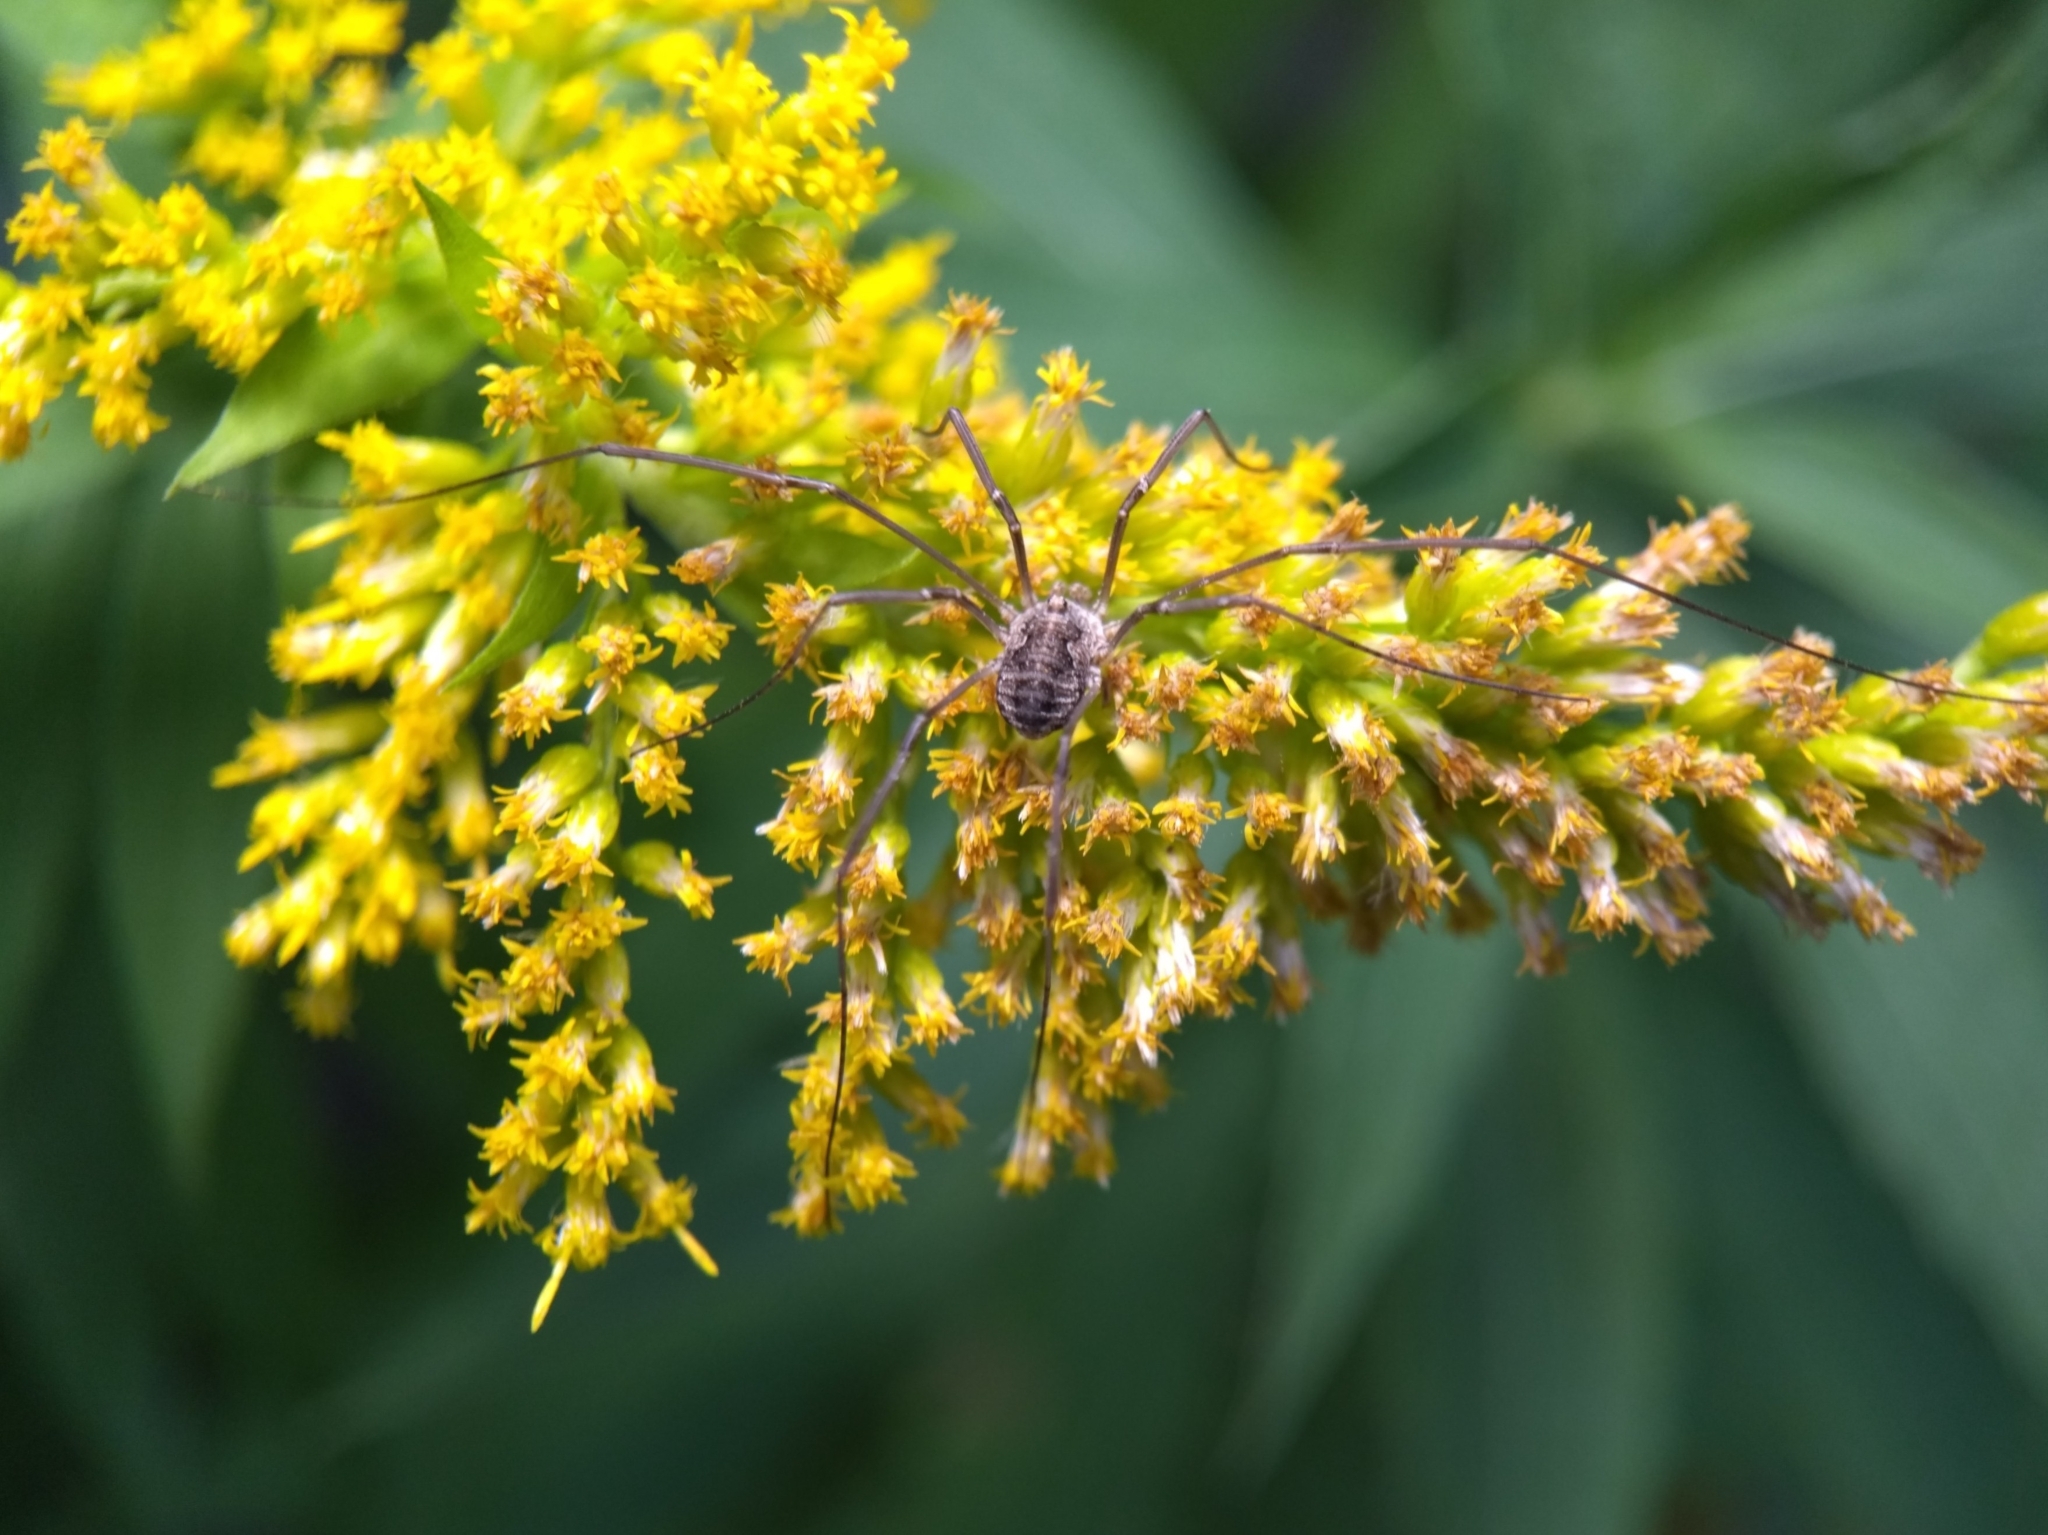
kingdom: Animalia
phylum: Arthropoda
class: Arachnida
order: Opiliones
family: Phalangiidae
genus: Phalangium
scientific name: Phalangium opilio
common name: Daddy longleg
